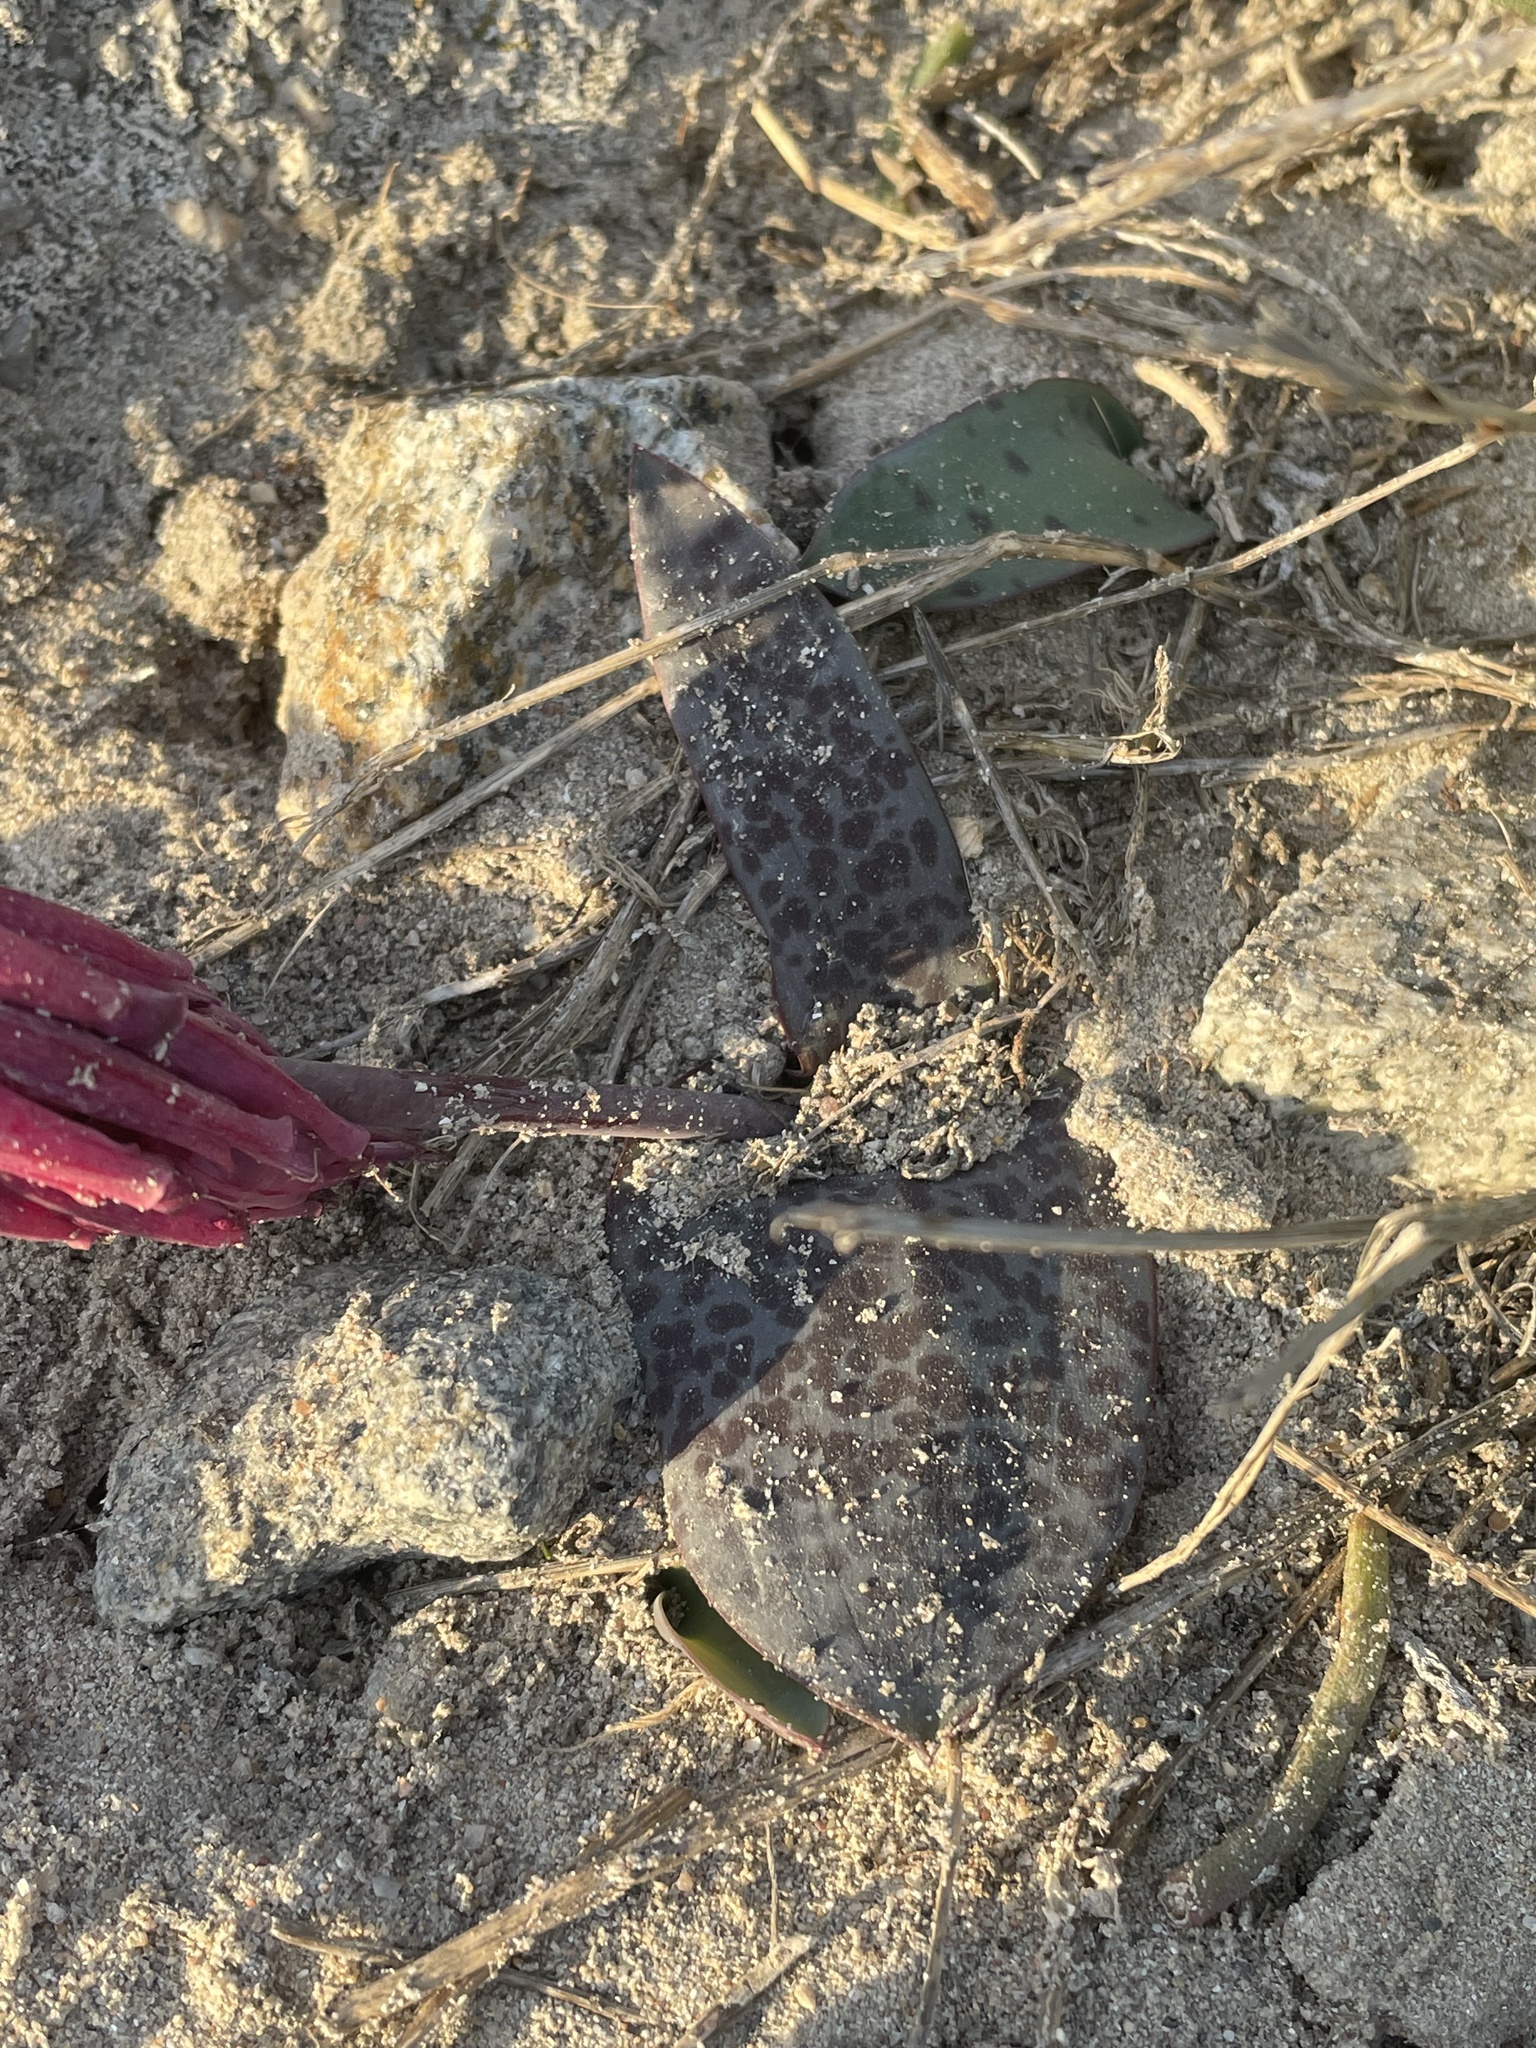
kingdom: Plantae
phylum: Tracheophyta
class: Liliopsida
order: Asparagales
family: Asparagaceae
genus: Lachenalia
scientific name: Lachenalia punctata
